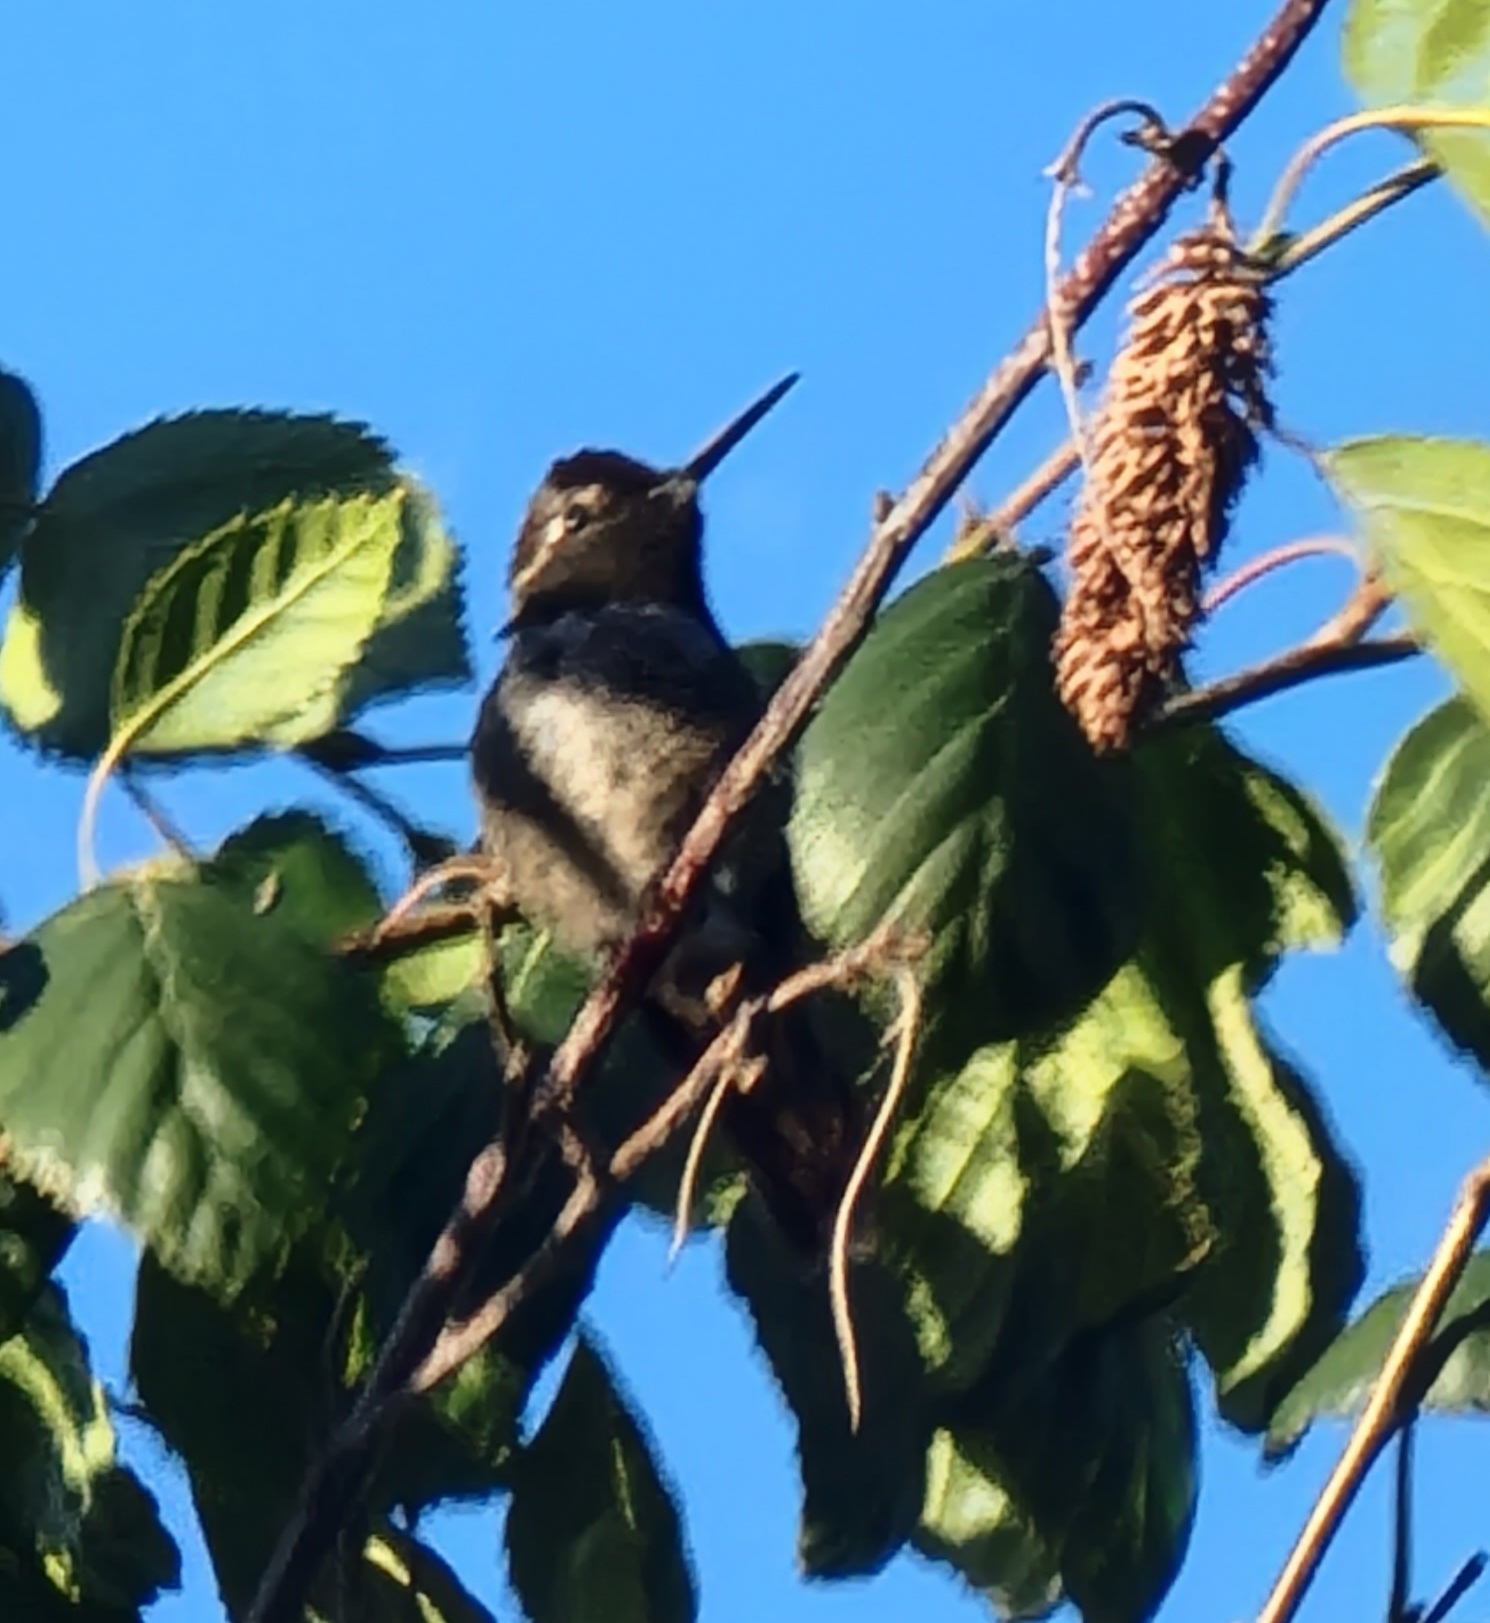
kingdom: Animalia
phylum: Chordata
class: Aves
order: Apodiformes
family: Trochilidae
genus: Calypte
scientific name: Calypte anna
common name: Anna's hummingbird
